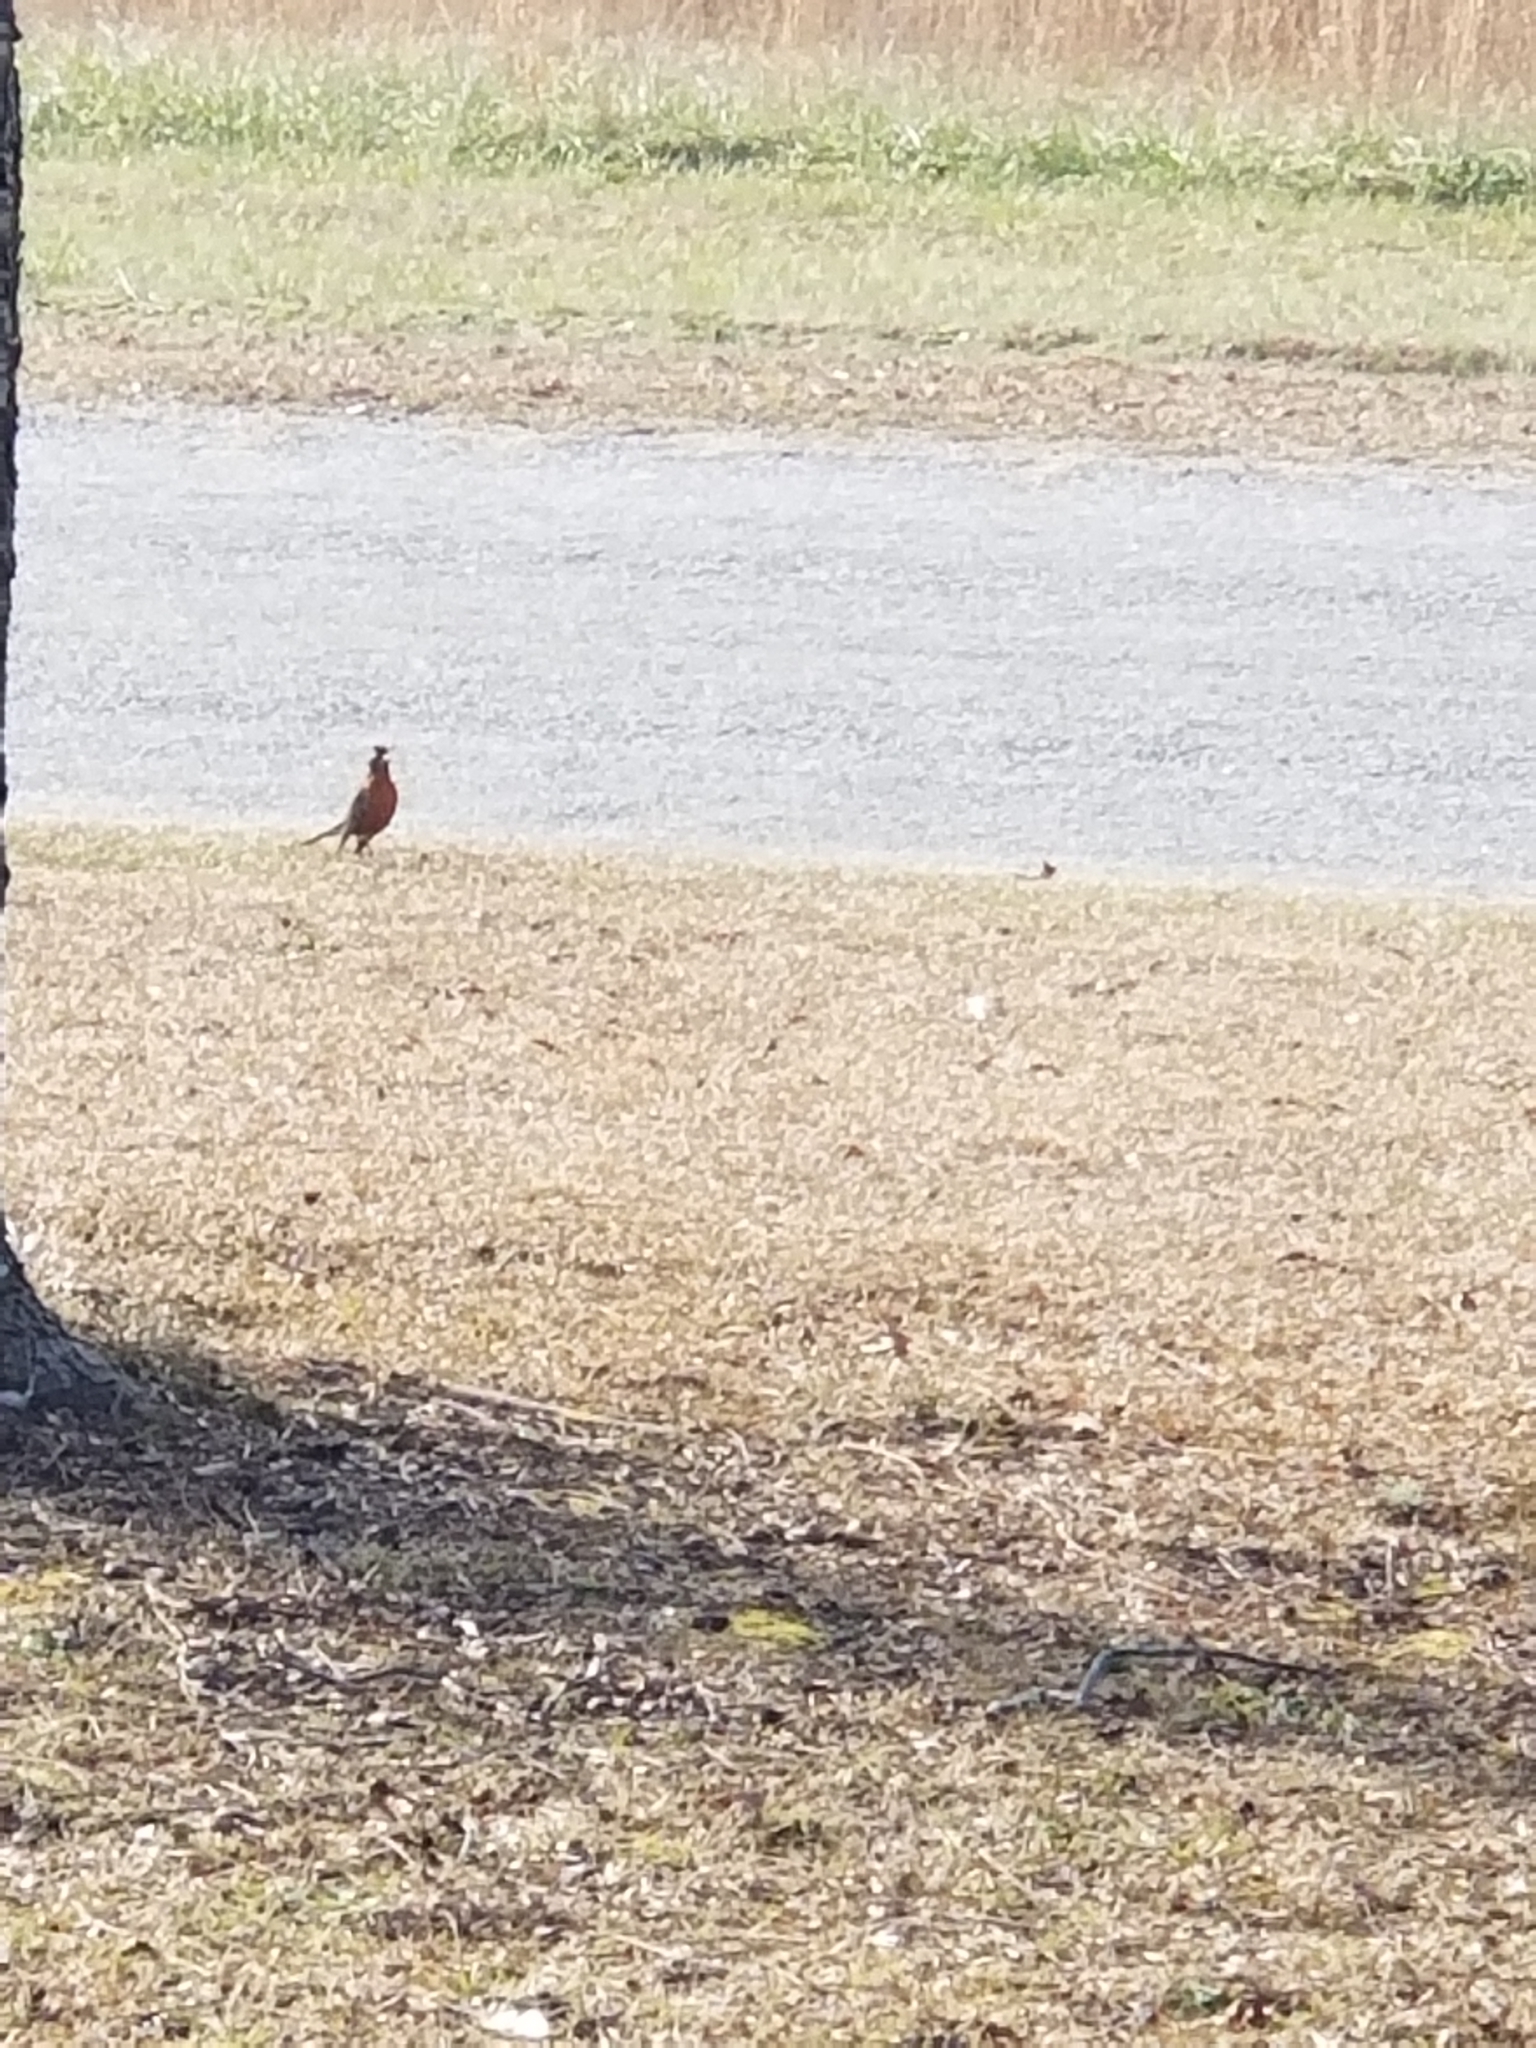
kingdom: Animalia
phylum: Chordata
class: Aves
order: Passeriformes
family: Turdidae
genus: Turdus
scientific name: Turdus migratorius
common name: American robin
